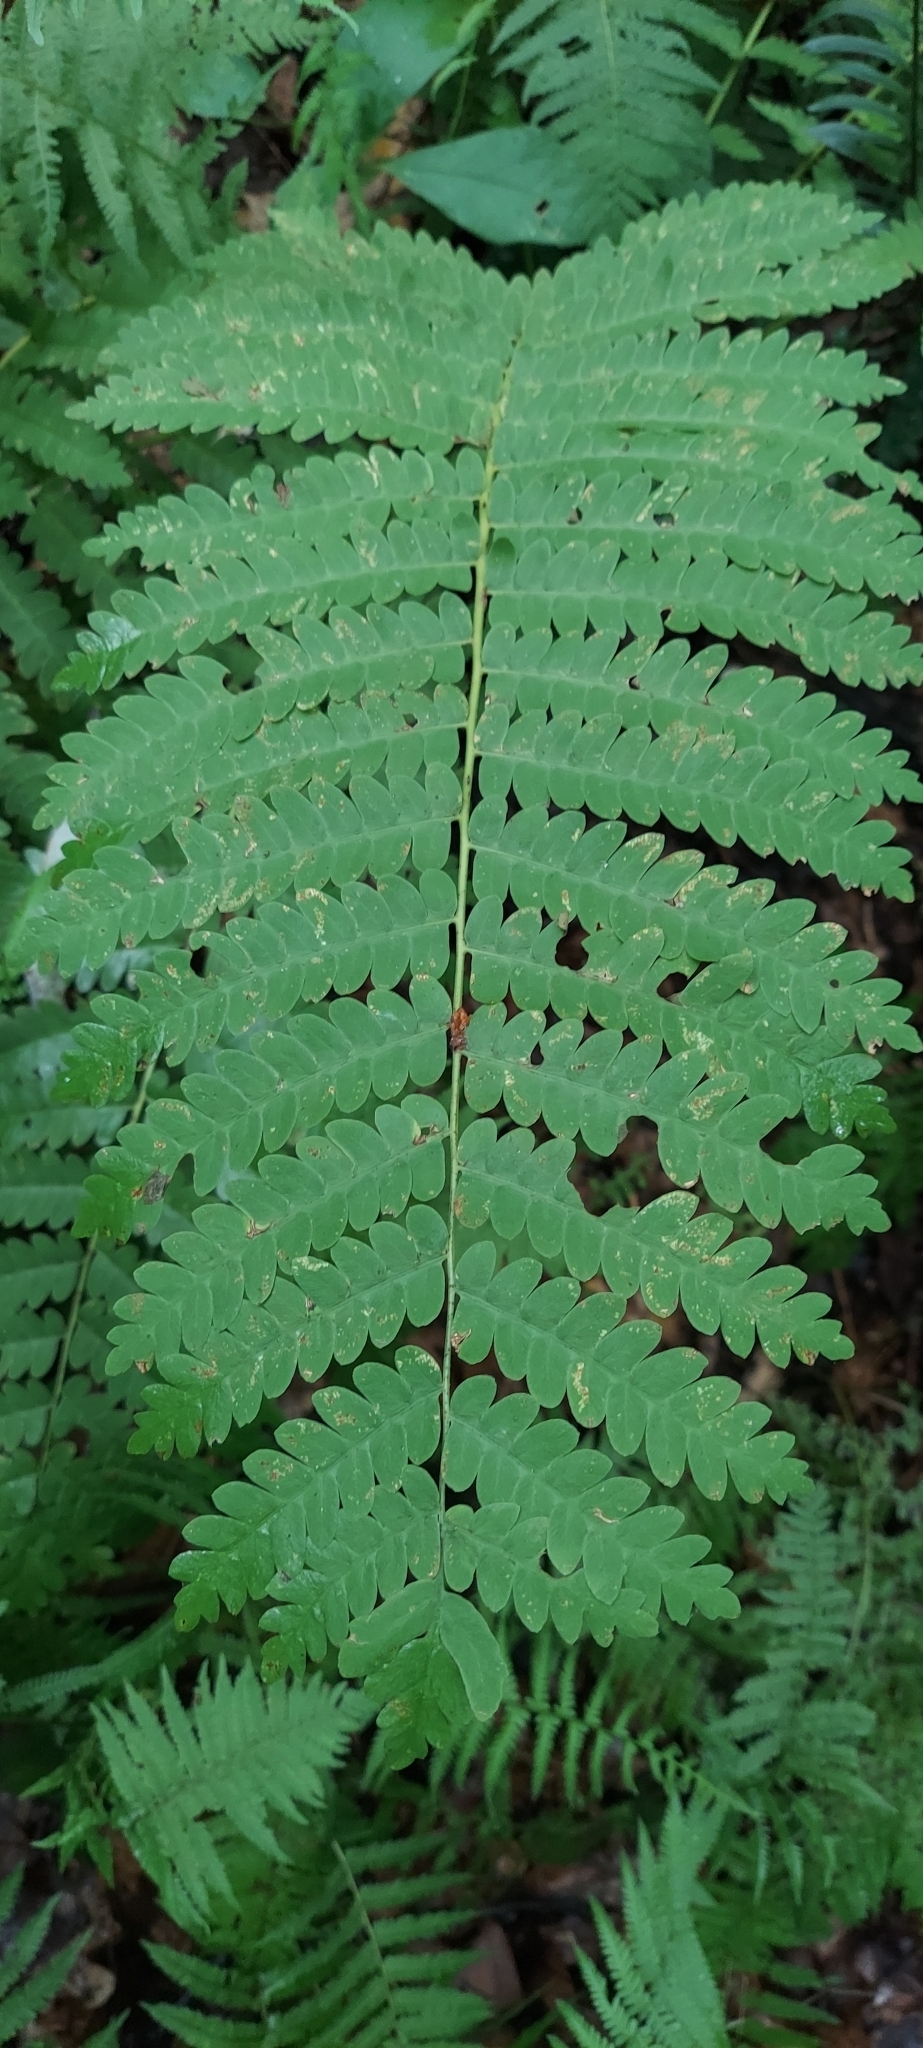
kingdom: Plantae
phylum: Tracheophyta
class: Polypodiopsida
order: Osmundales
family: Osmundaceae
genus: Claytosmunda
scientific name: Claytosmunda claytoniana
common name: Clayton's fern
